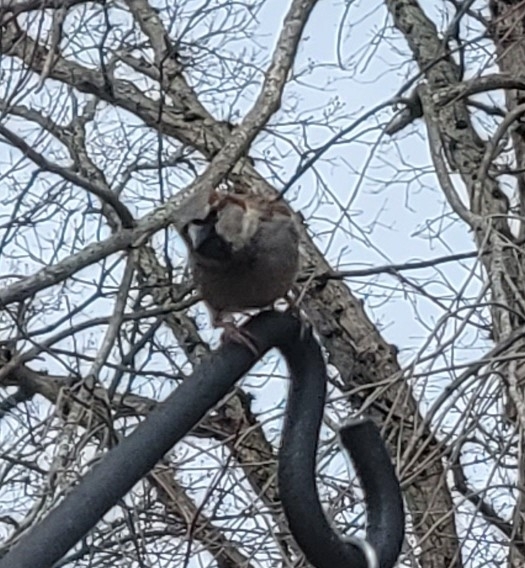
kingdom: Animalia
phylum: Chordata
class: Aves
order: Passeriformes
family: Passeridae
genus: Passer
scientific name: Passer domesticus
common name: House sparrow
